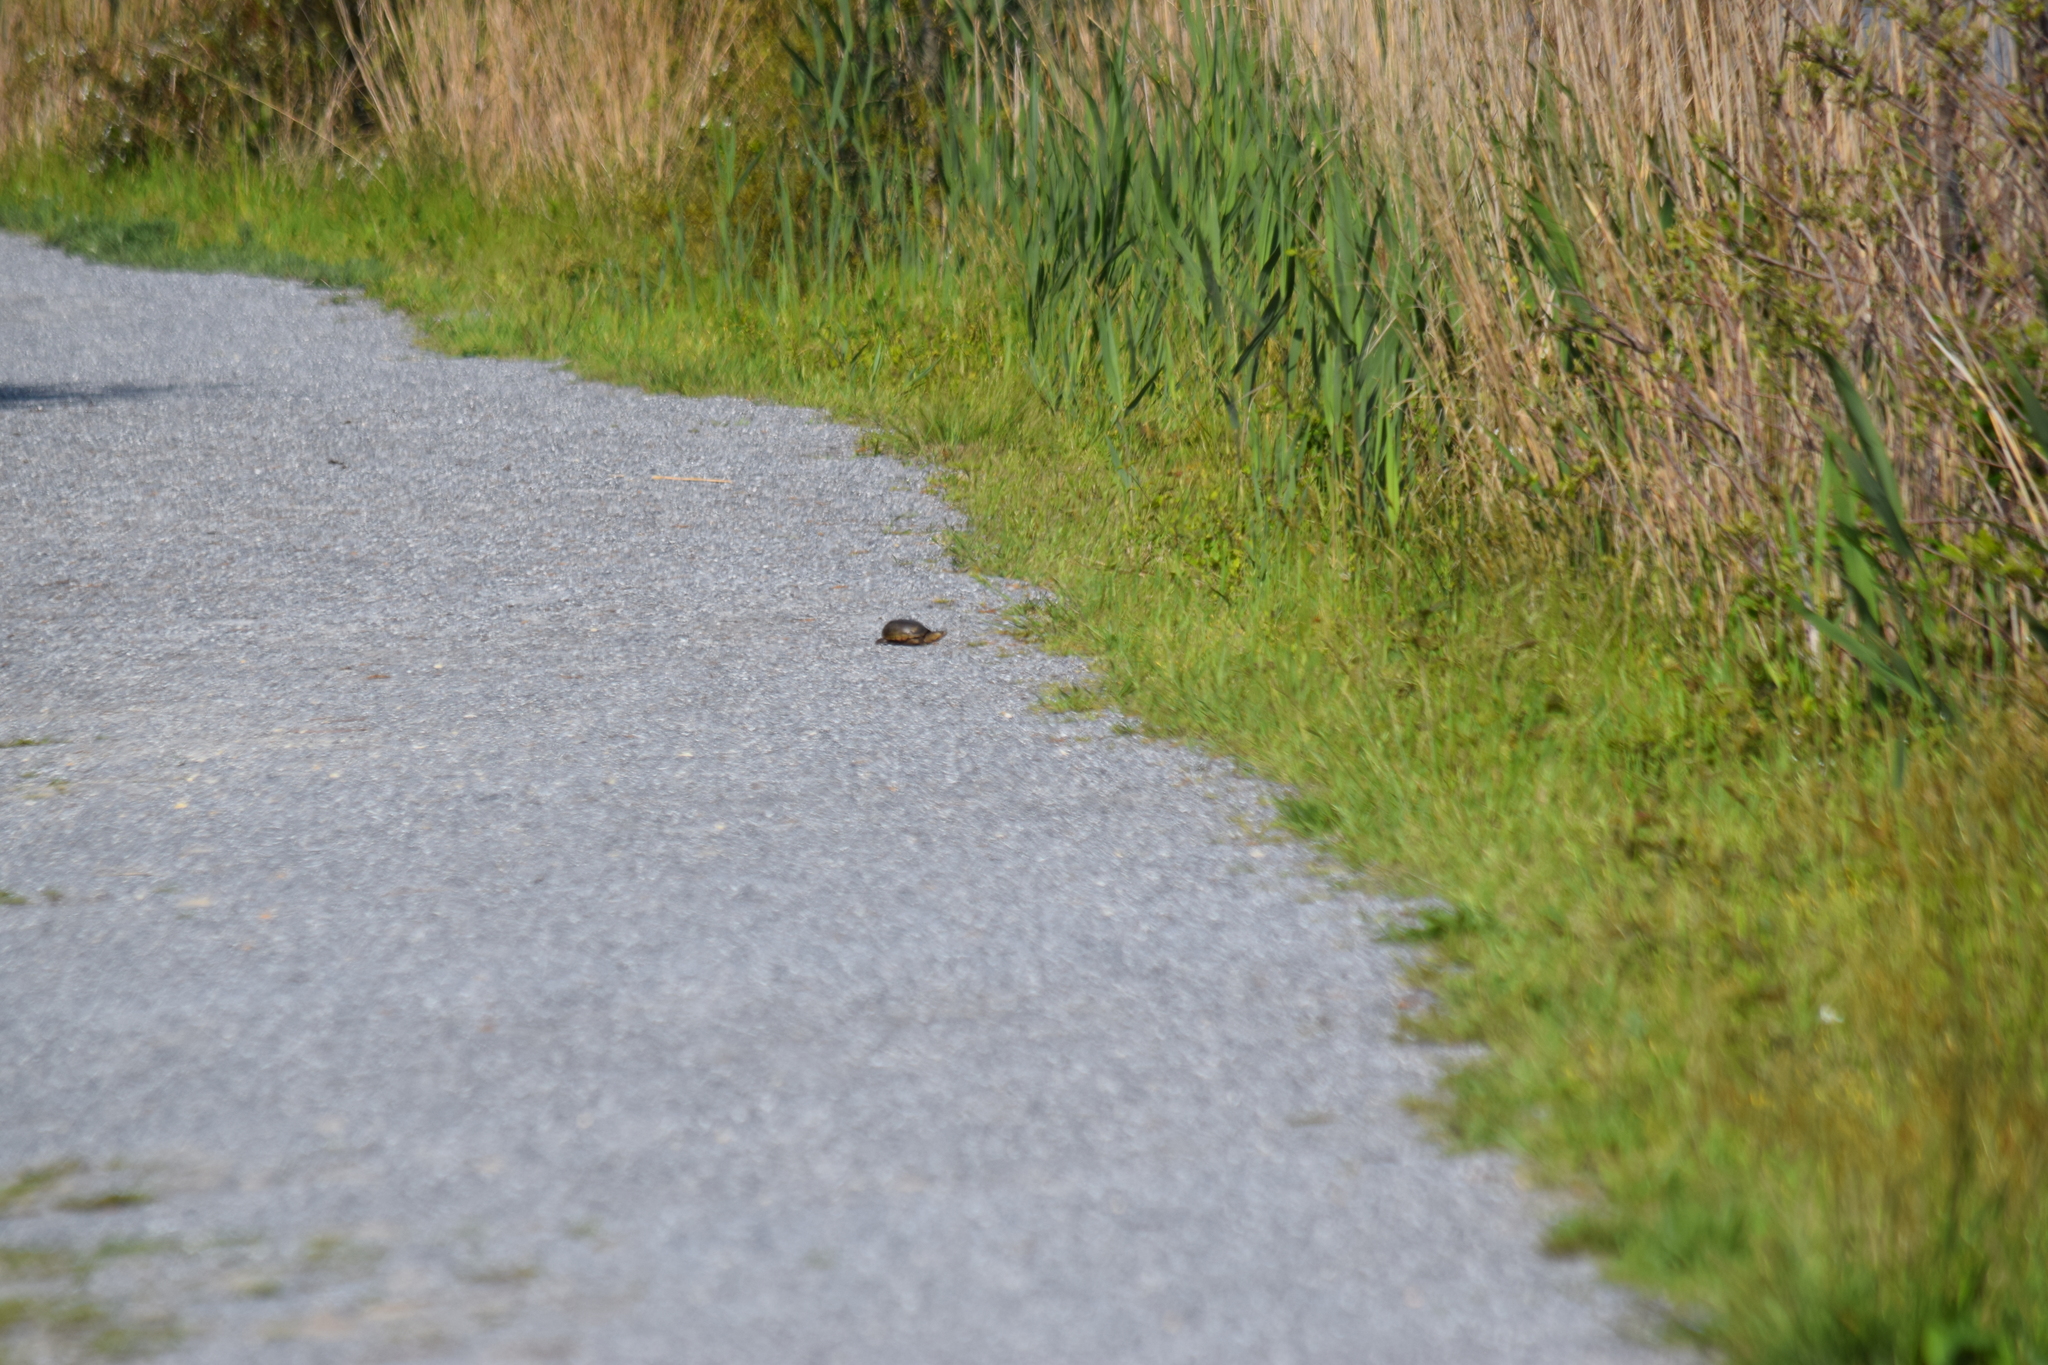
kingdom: Animalia
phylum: Chordata
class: Testudines
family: Kinosternidae
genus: Kinosternon
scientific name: Kinosternon subrubrum
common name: Eastern mud turtle
